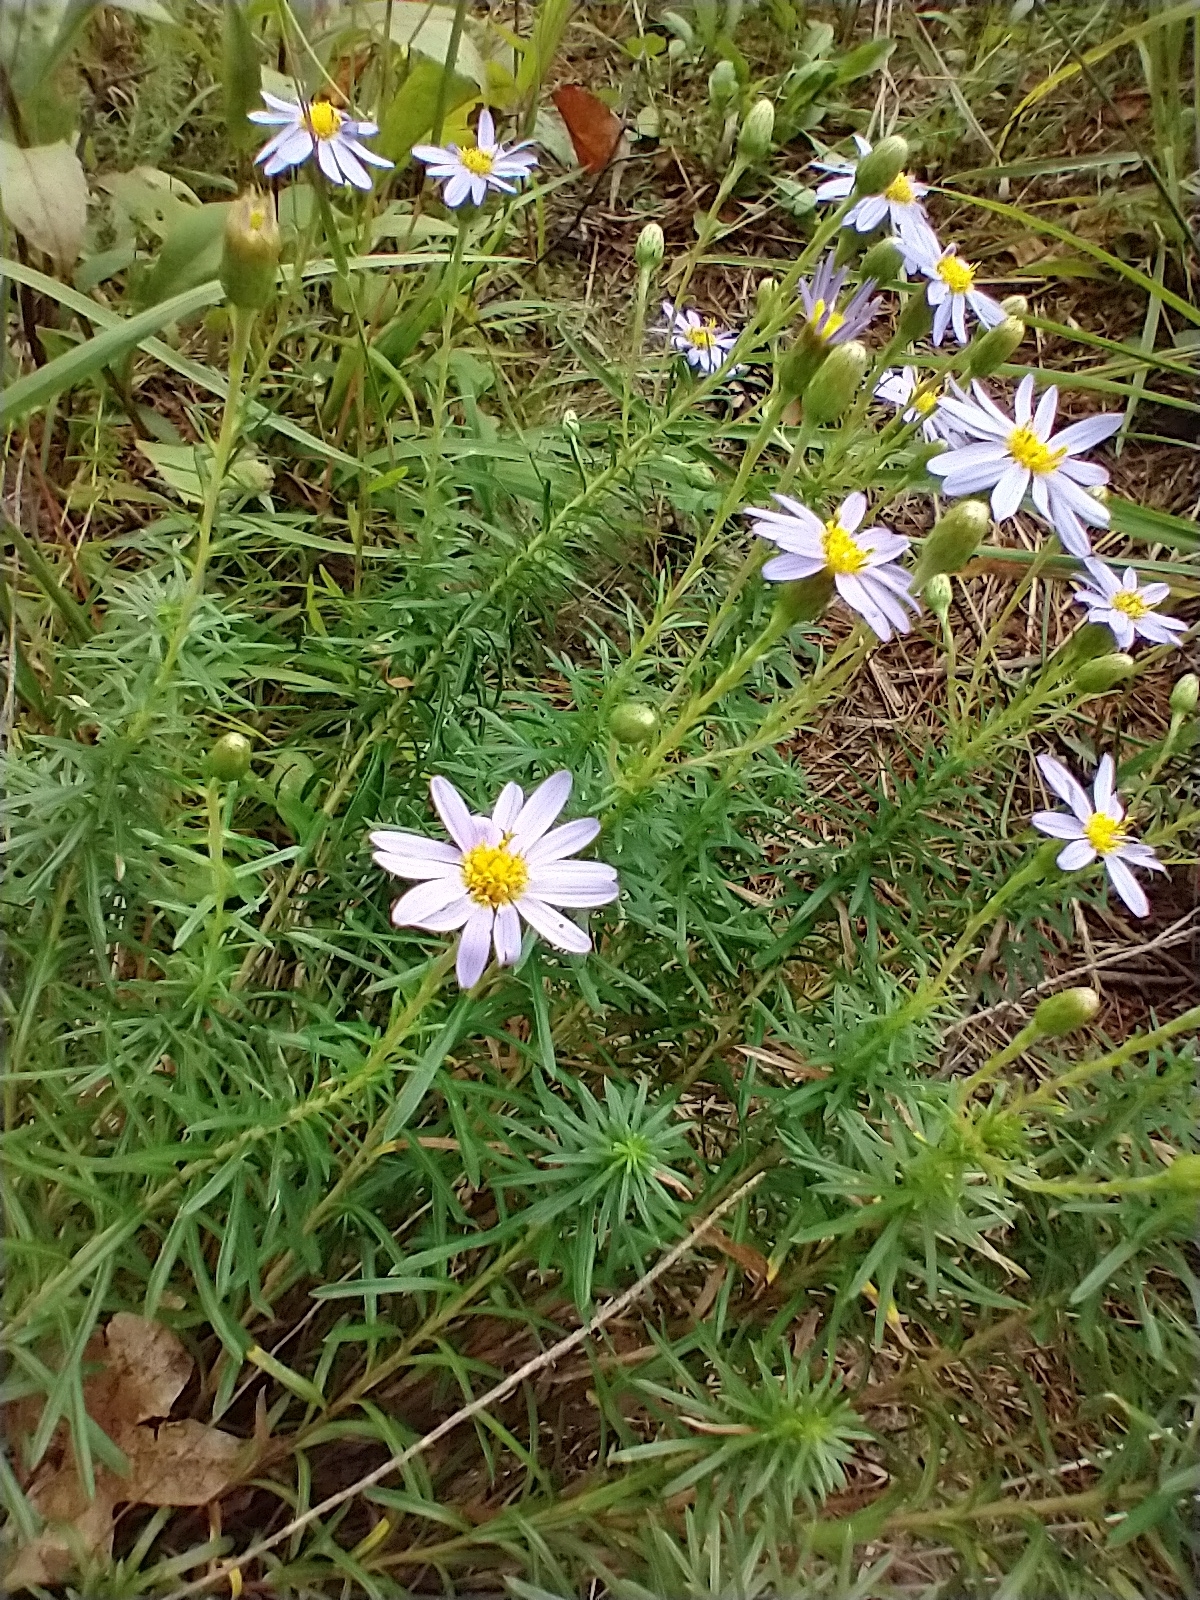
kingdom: Plantae
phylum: Tracheophyta
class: Magnoliopsida
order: Asterales
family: Asteraceae
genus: Ionactis
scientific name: Ionactis linariifolia
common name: Flax-leaf aster
